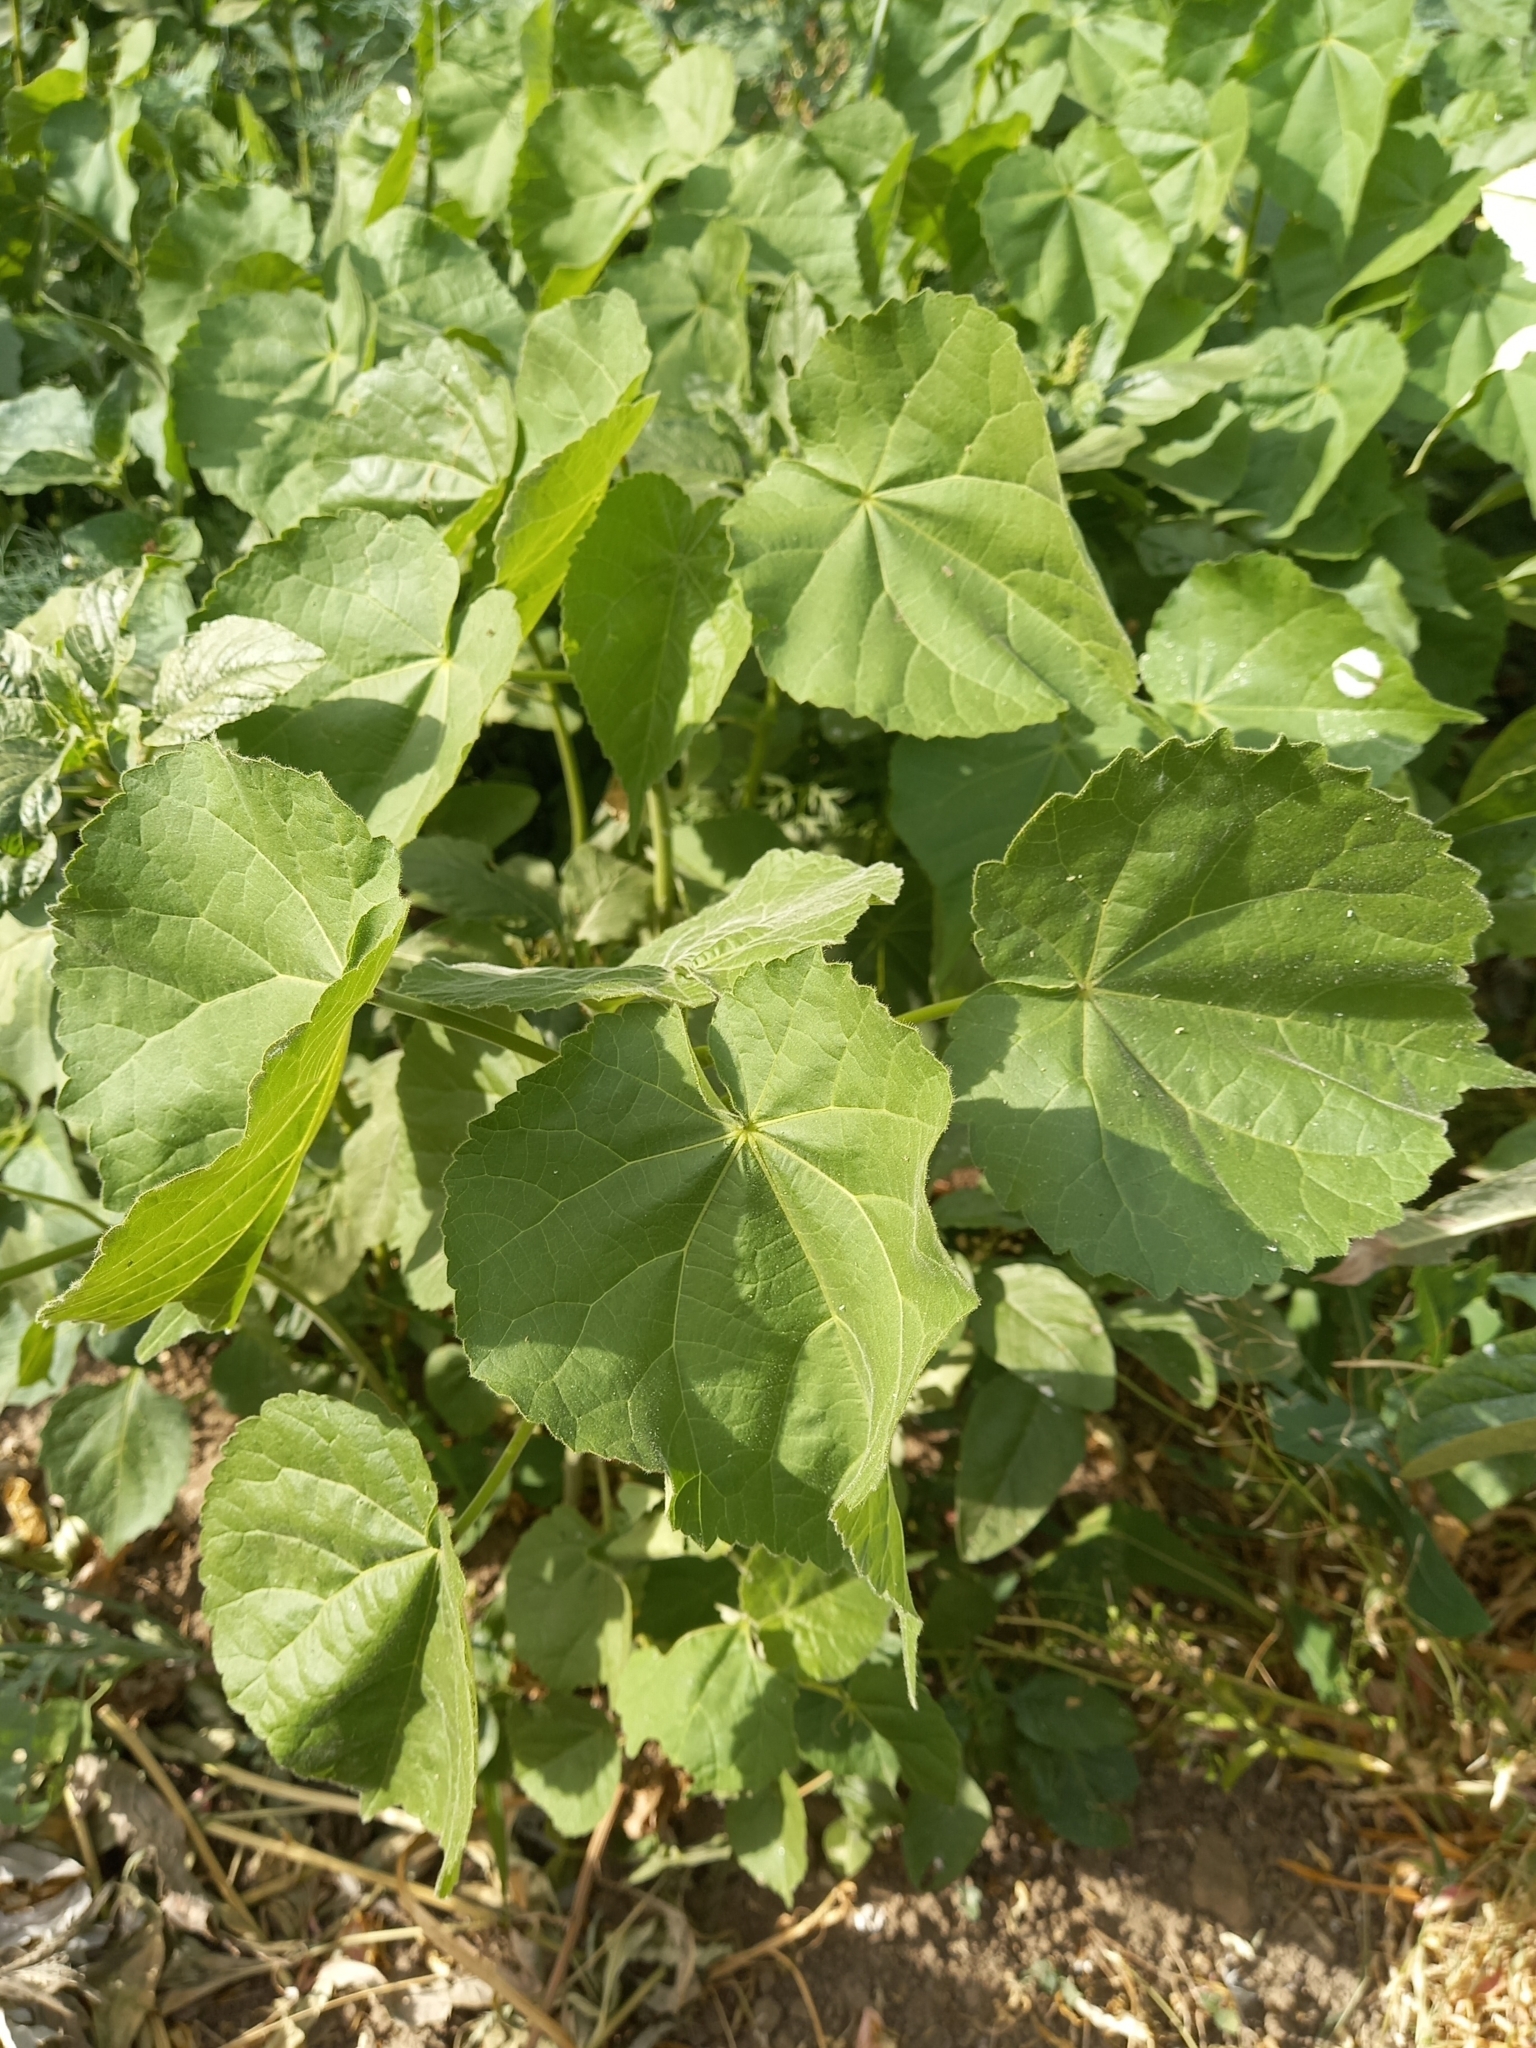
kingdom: Plantae
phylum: Tracheophyta
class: Magnoliopsida
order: Malvales
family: Malvaceae
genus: Abutilon
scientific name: Abutilon theophrasti
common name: Velvetleaf
